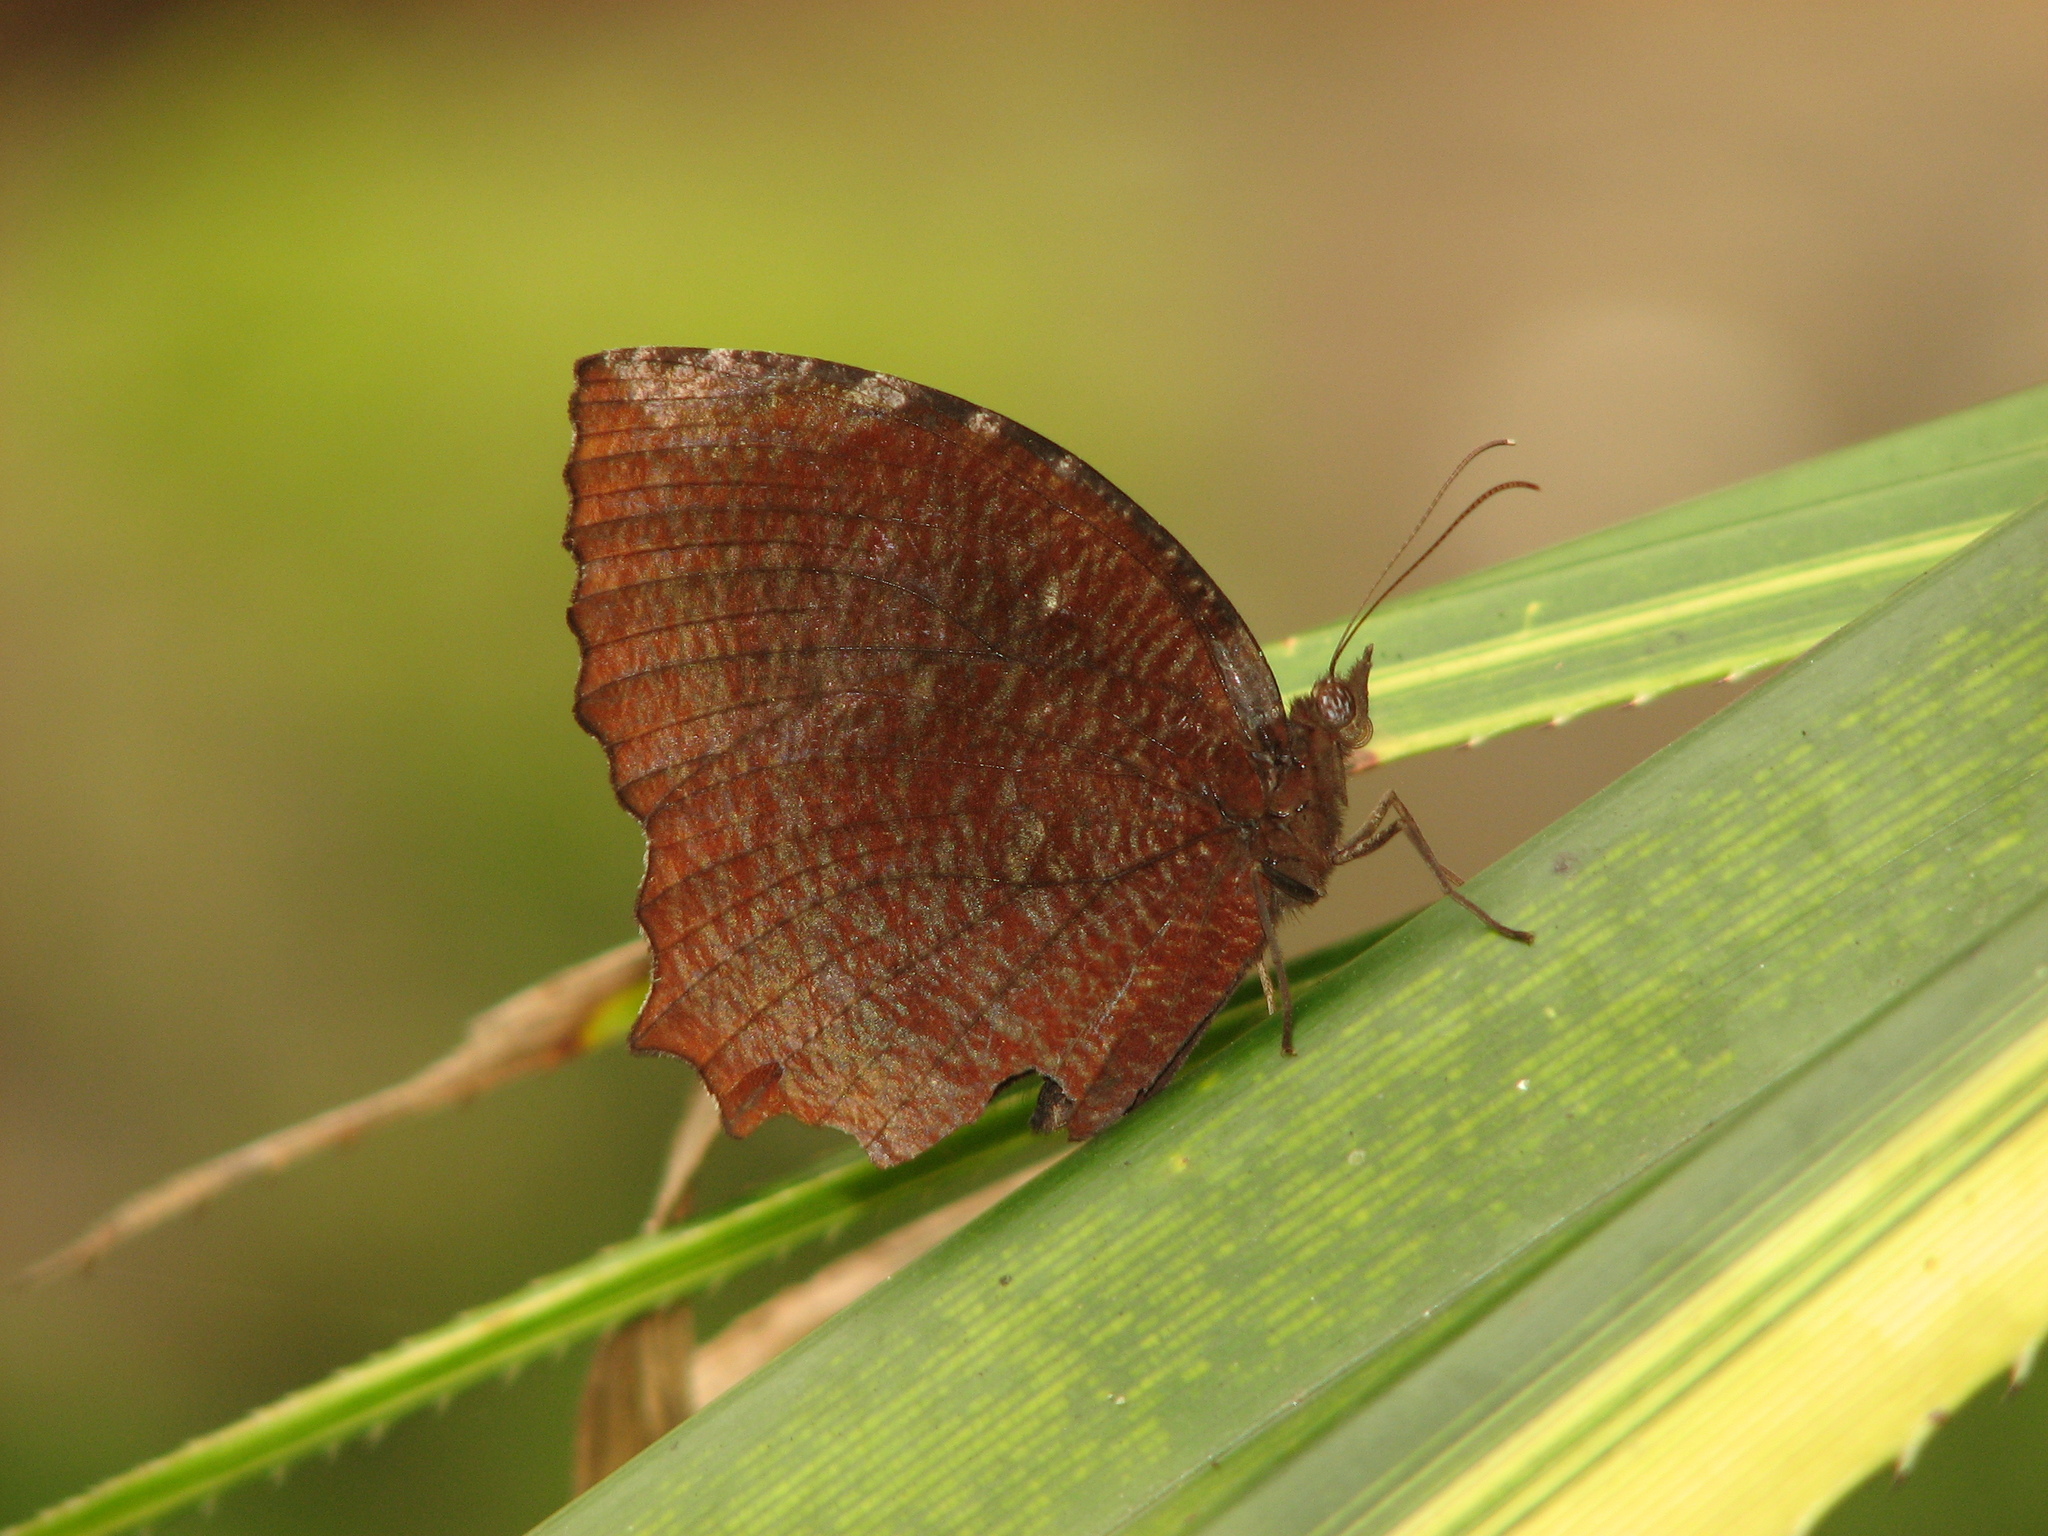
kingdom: Animalia
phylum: Arthropoda
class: Insecta
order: Lepidoptera
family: Nymphalidae
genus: Elymnias
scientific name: Elymnias hypermnestra
